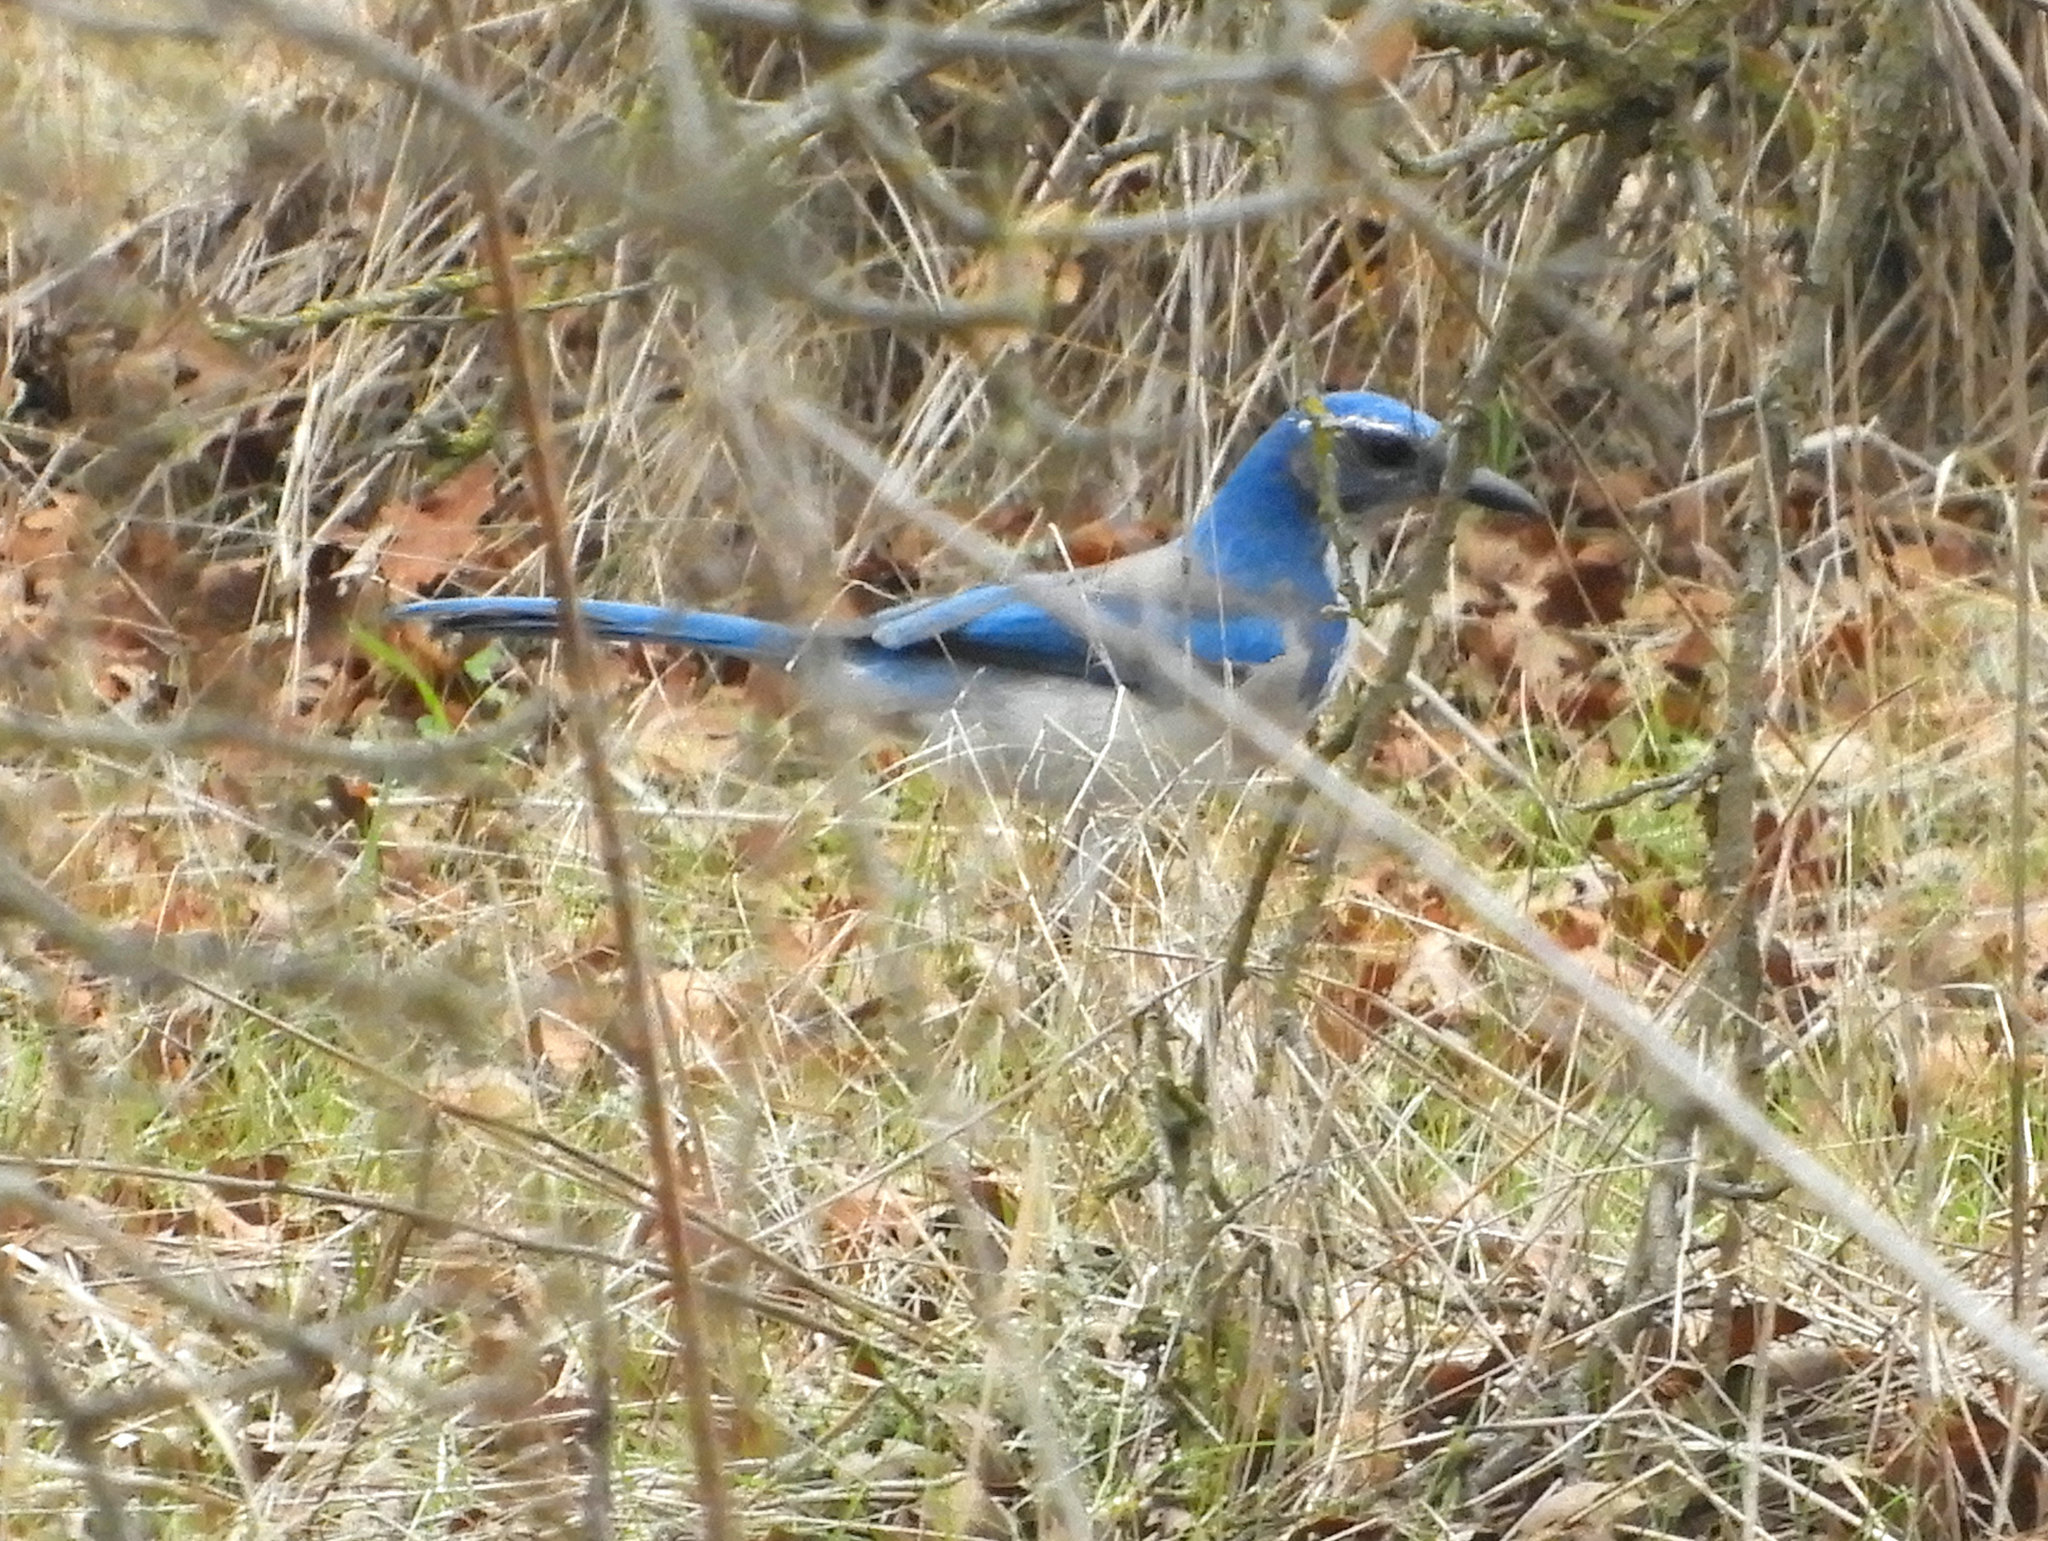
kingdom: Animalia
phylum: Chordata
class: Aves
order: Passeriformes
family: Corvidae
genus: Aphelocoma
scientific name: Aphelocoma californica
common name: California scrub-jay
